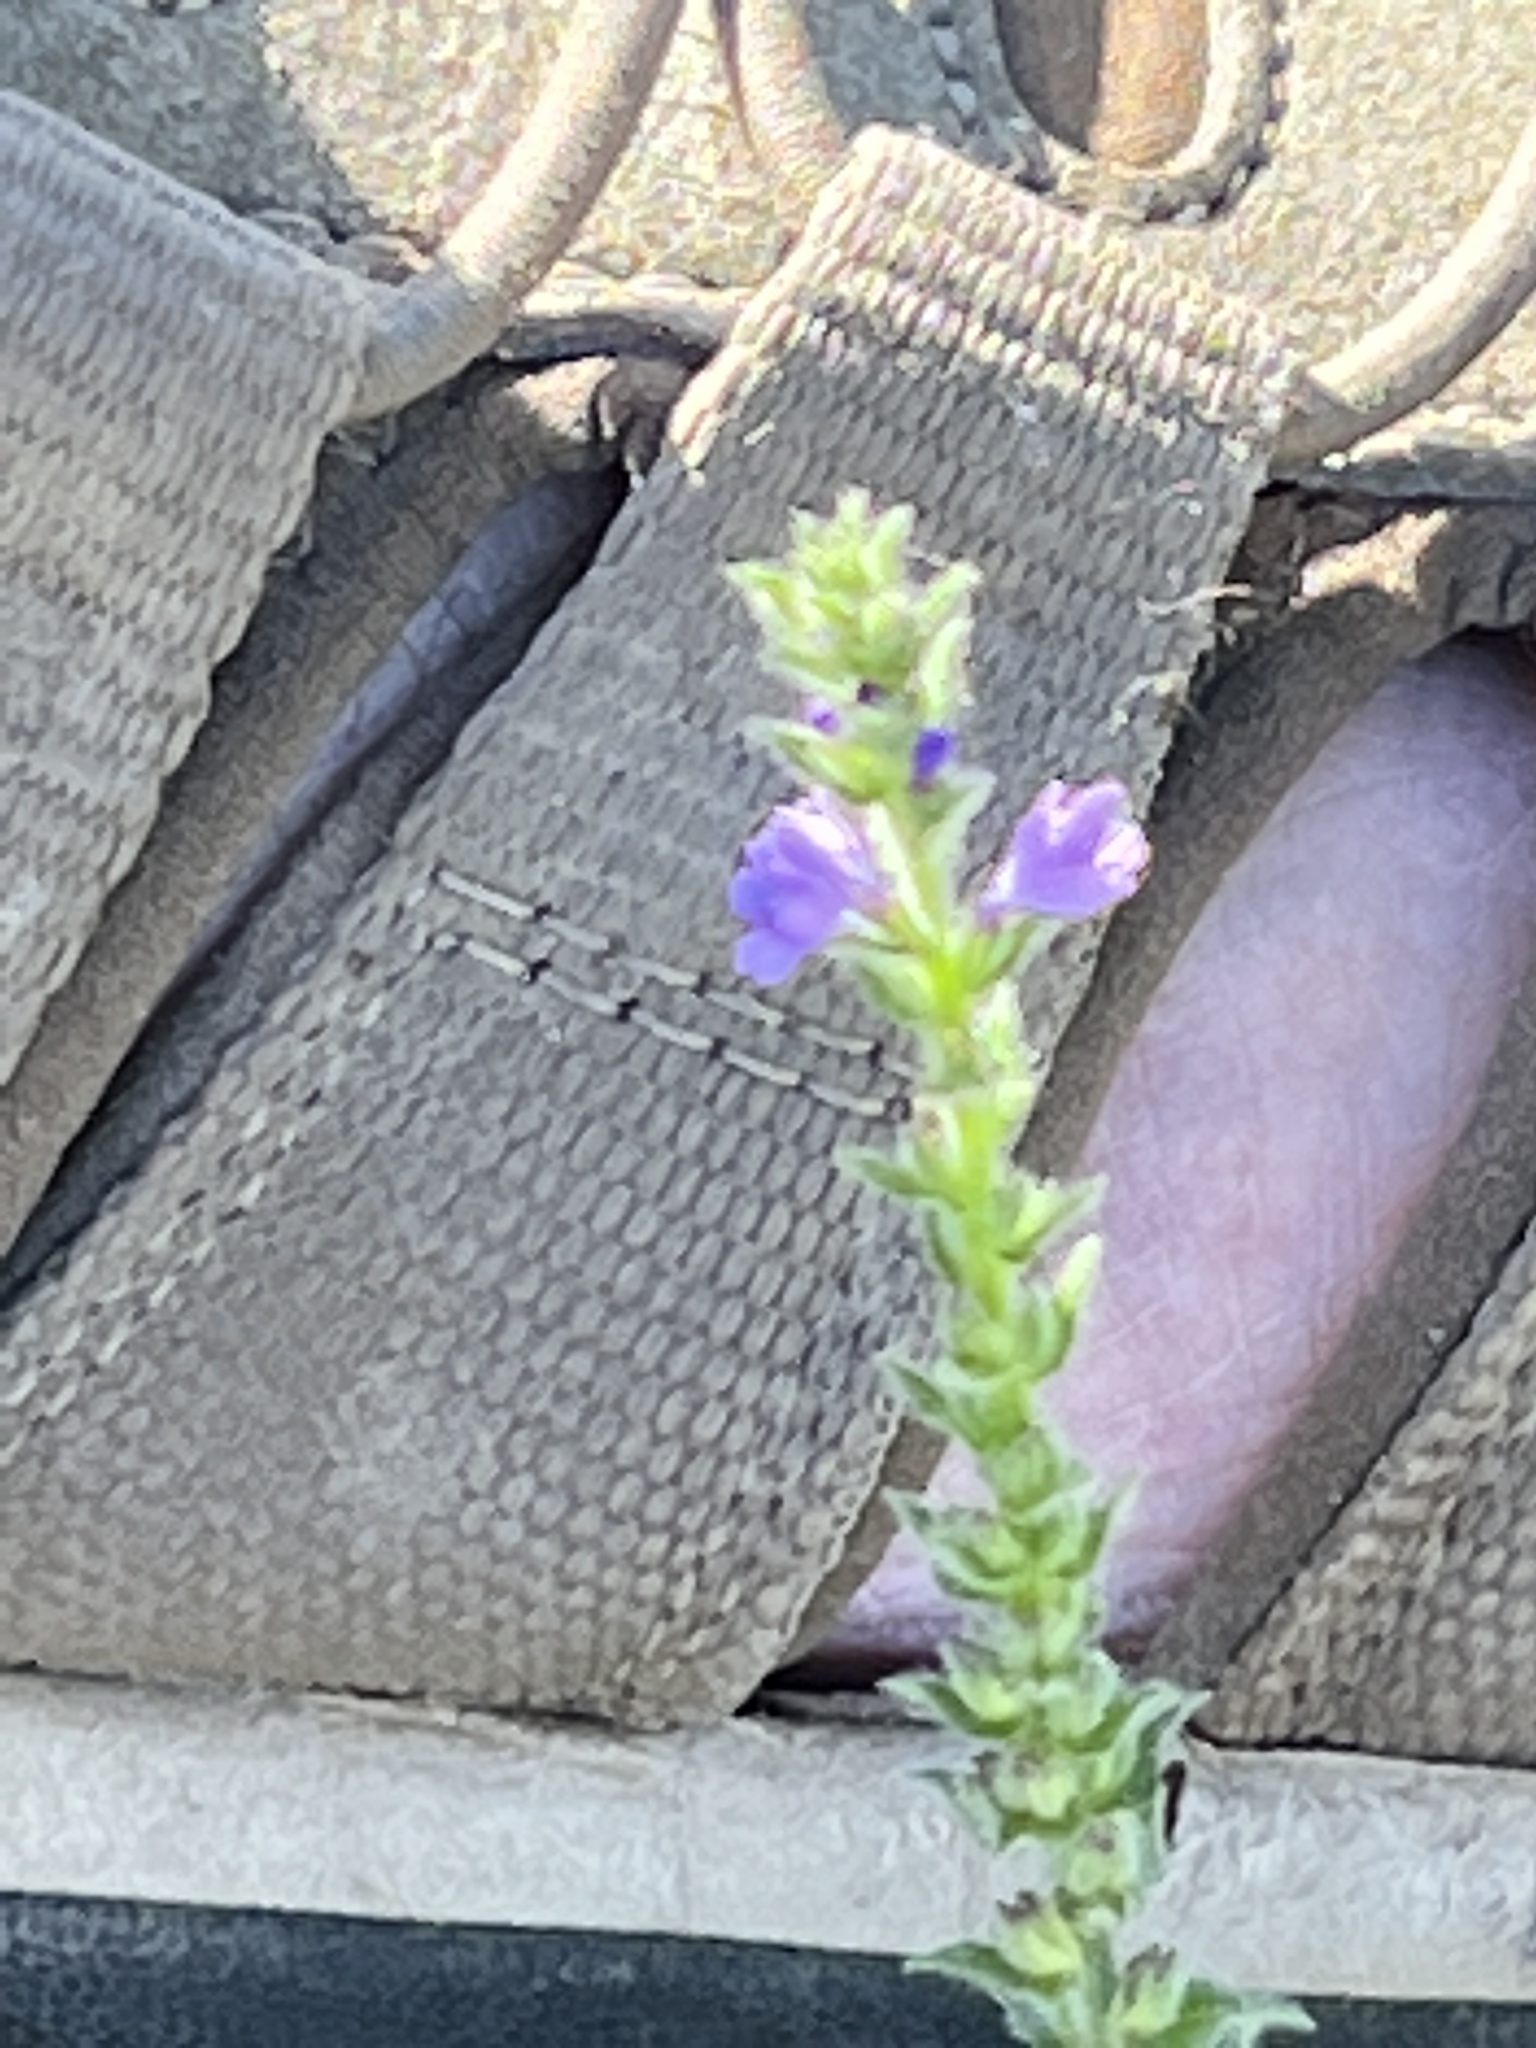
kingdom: Plantae
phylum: Tracheophyta
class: Magnoliopsida
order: Lamiales
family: Verbenaceae
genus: Verbena
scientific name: Verbena canescens
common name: Gray vervain
